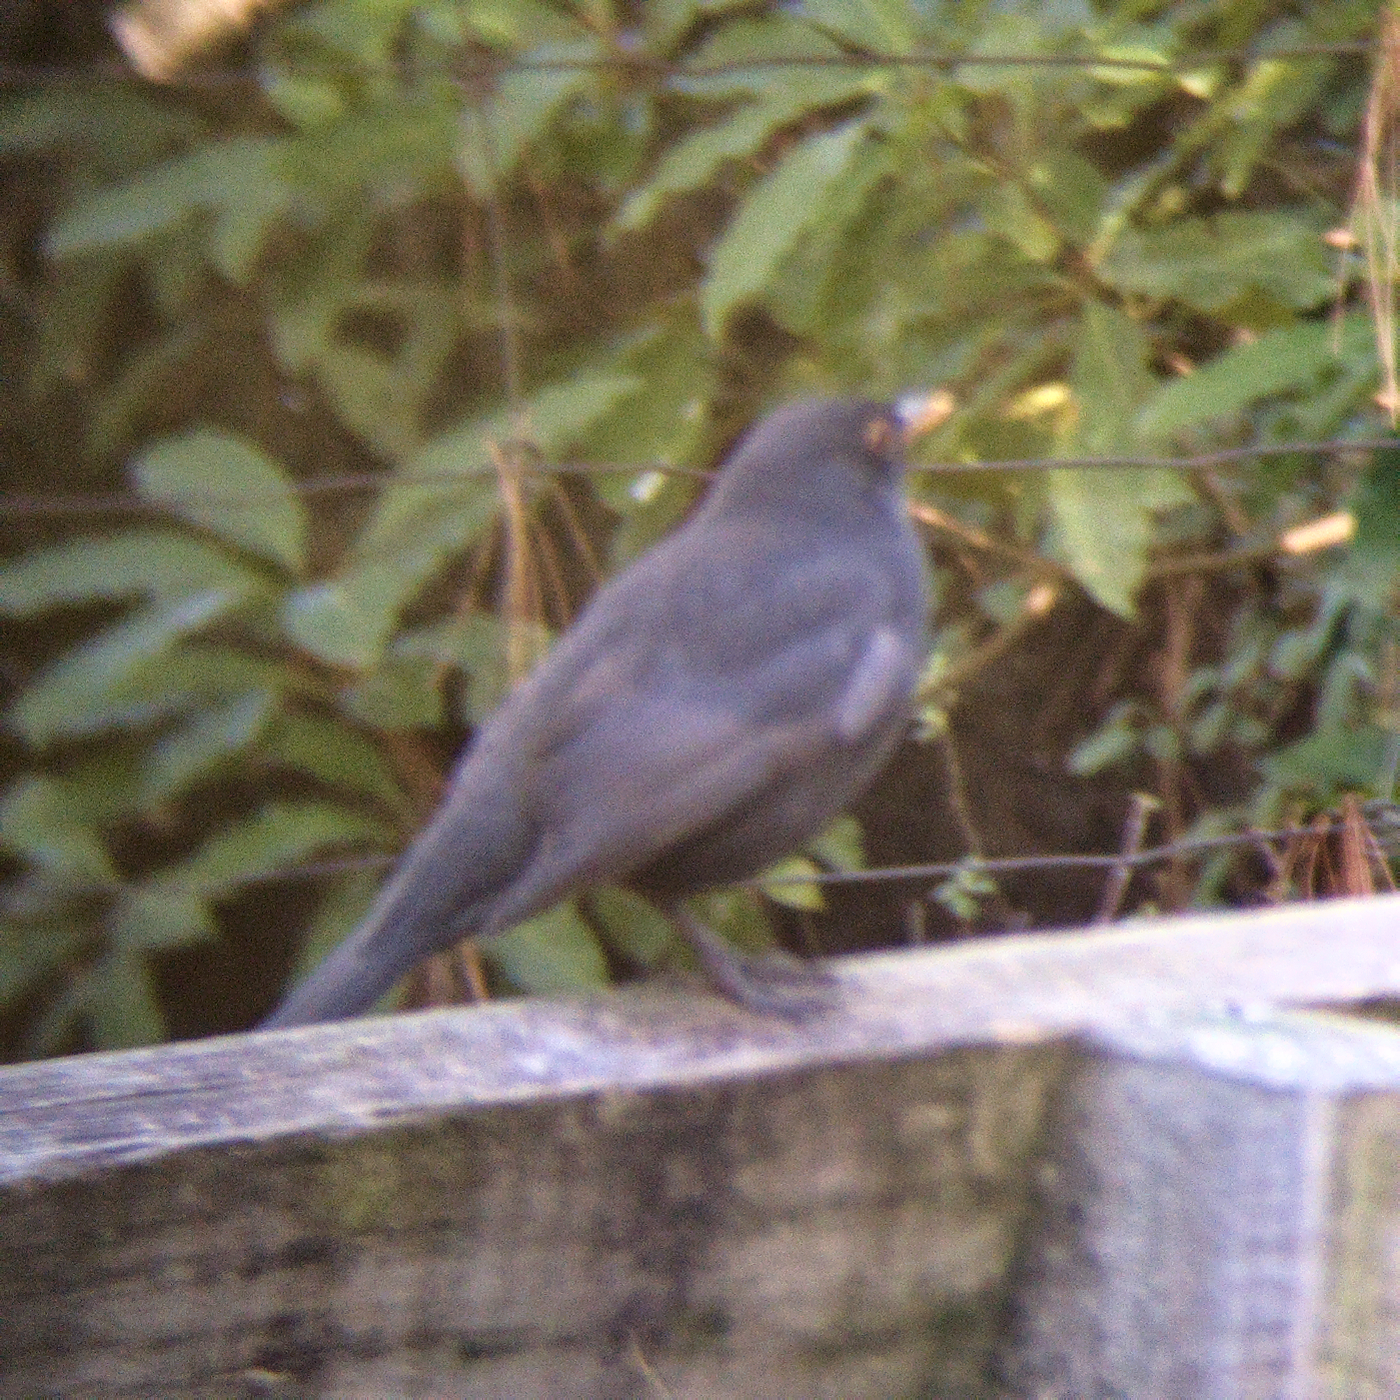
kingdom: Animalia
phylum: Chordata
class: Aves
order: Passeriformes
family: Turdidae
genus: Turdus
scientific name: Turdus merula
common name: Common blackbird
